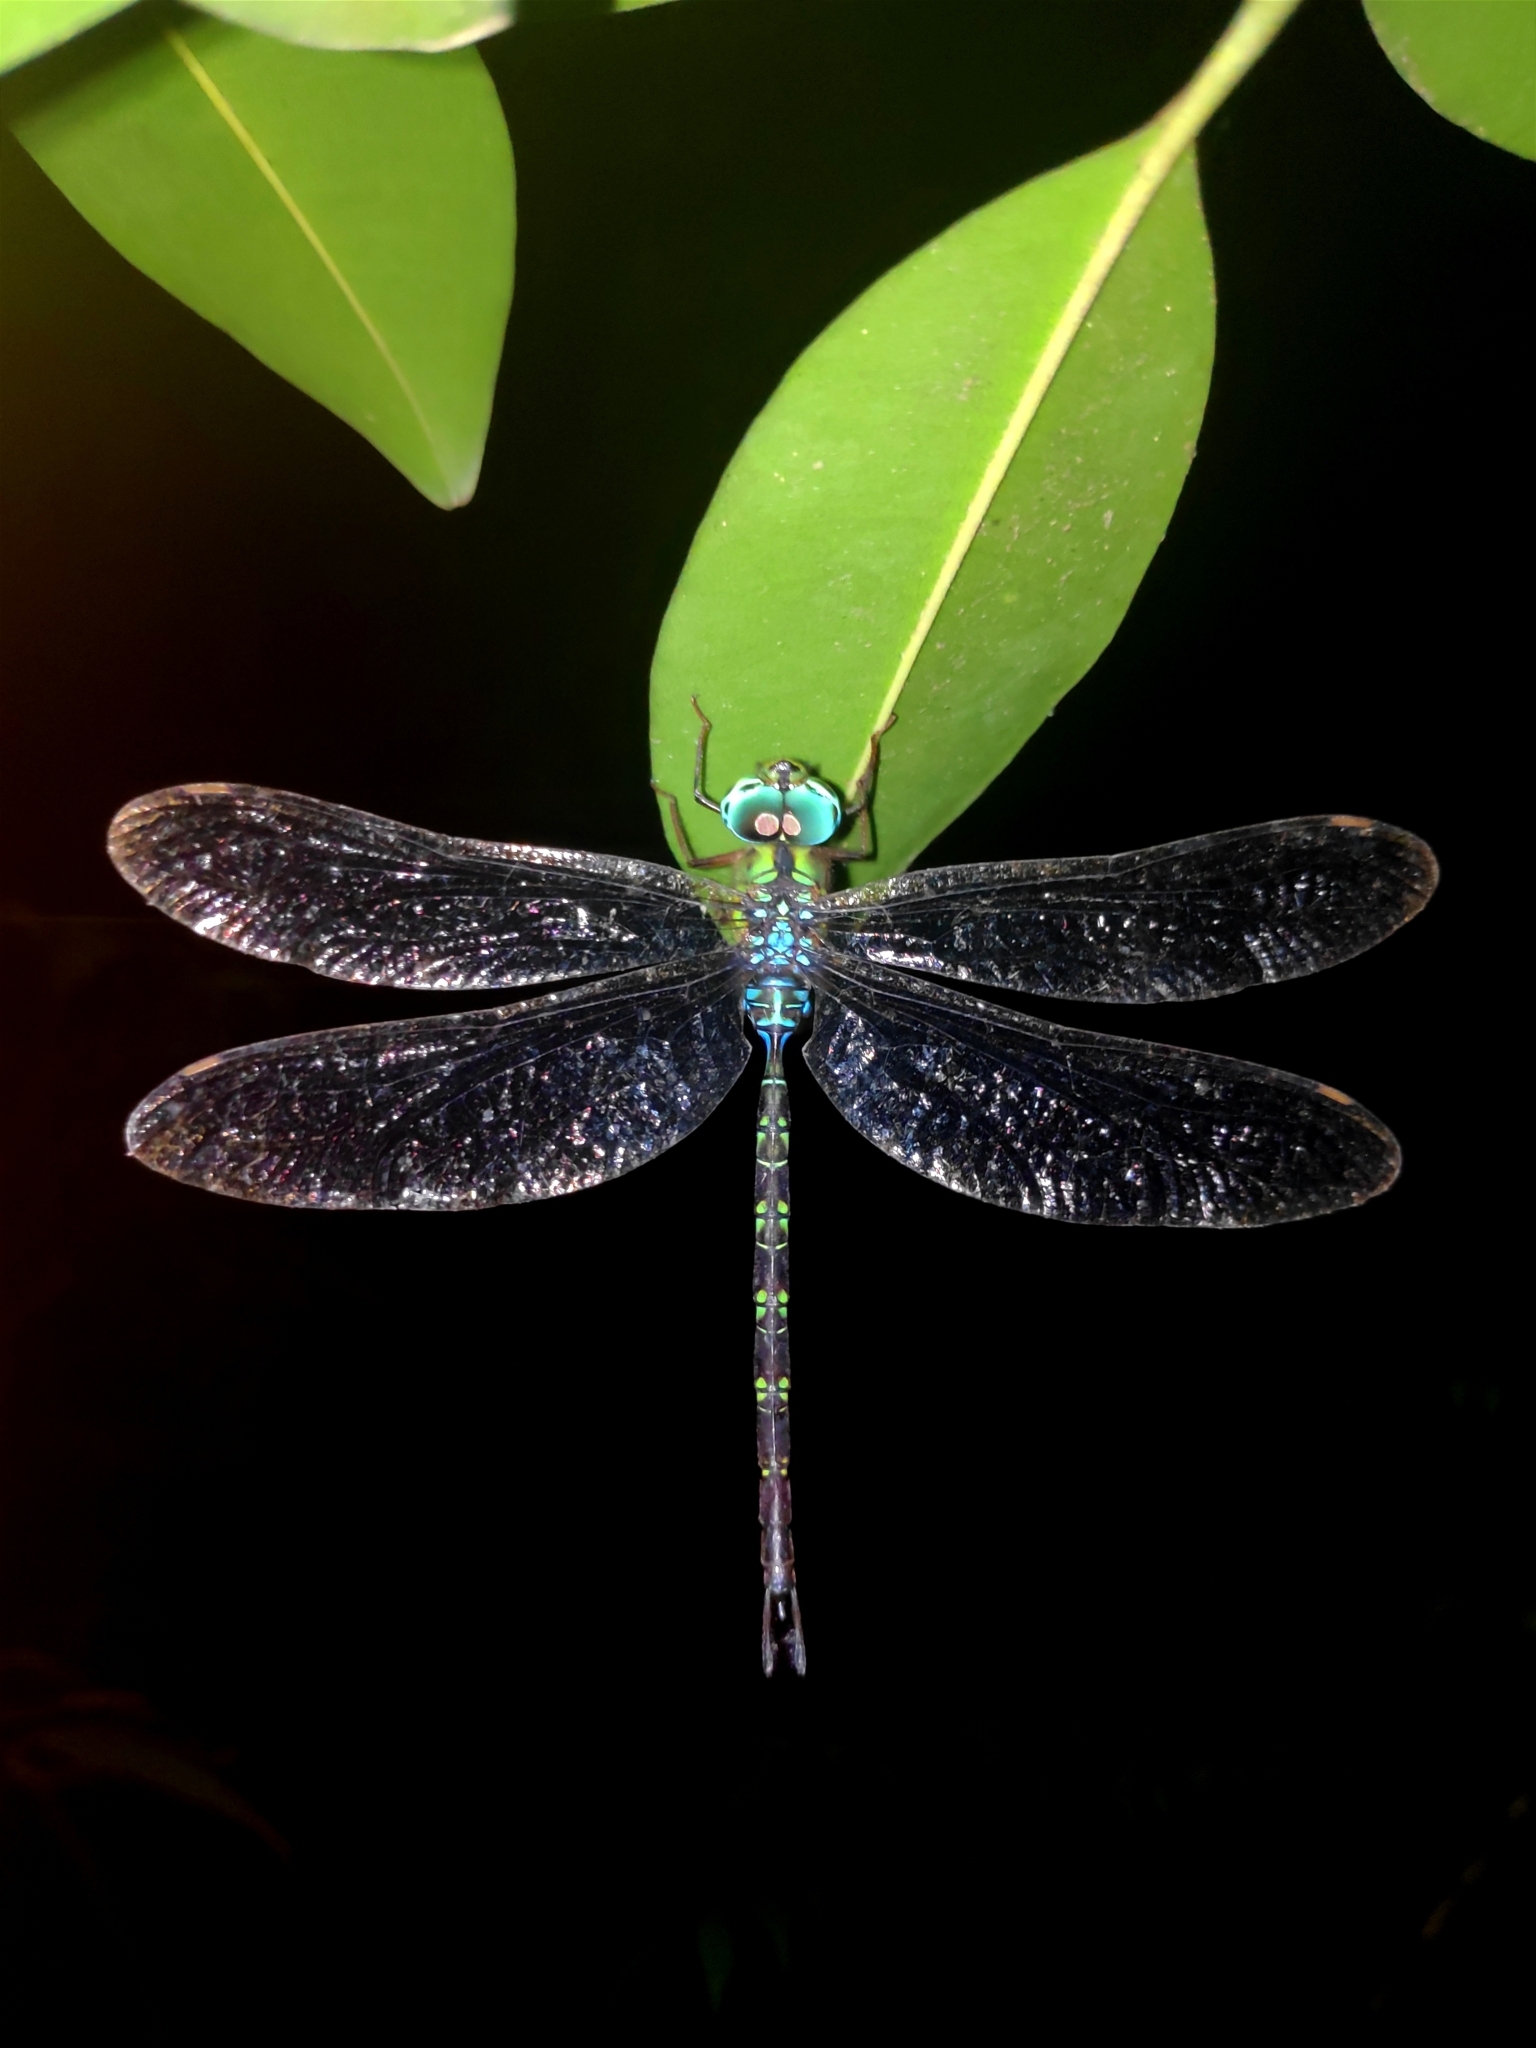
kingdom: Animalia
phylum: Arthropoda
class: Insecta
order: Odonata
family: Aeshnidae
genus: Gynacantha
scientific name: Gynacantha subinterrupta
